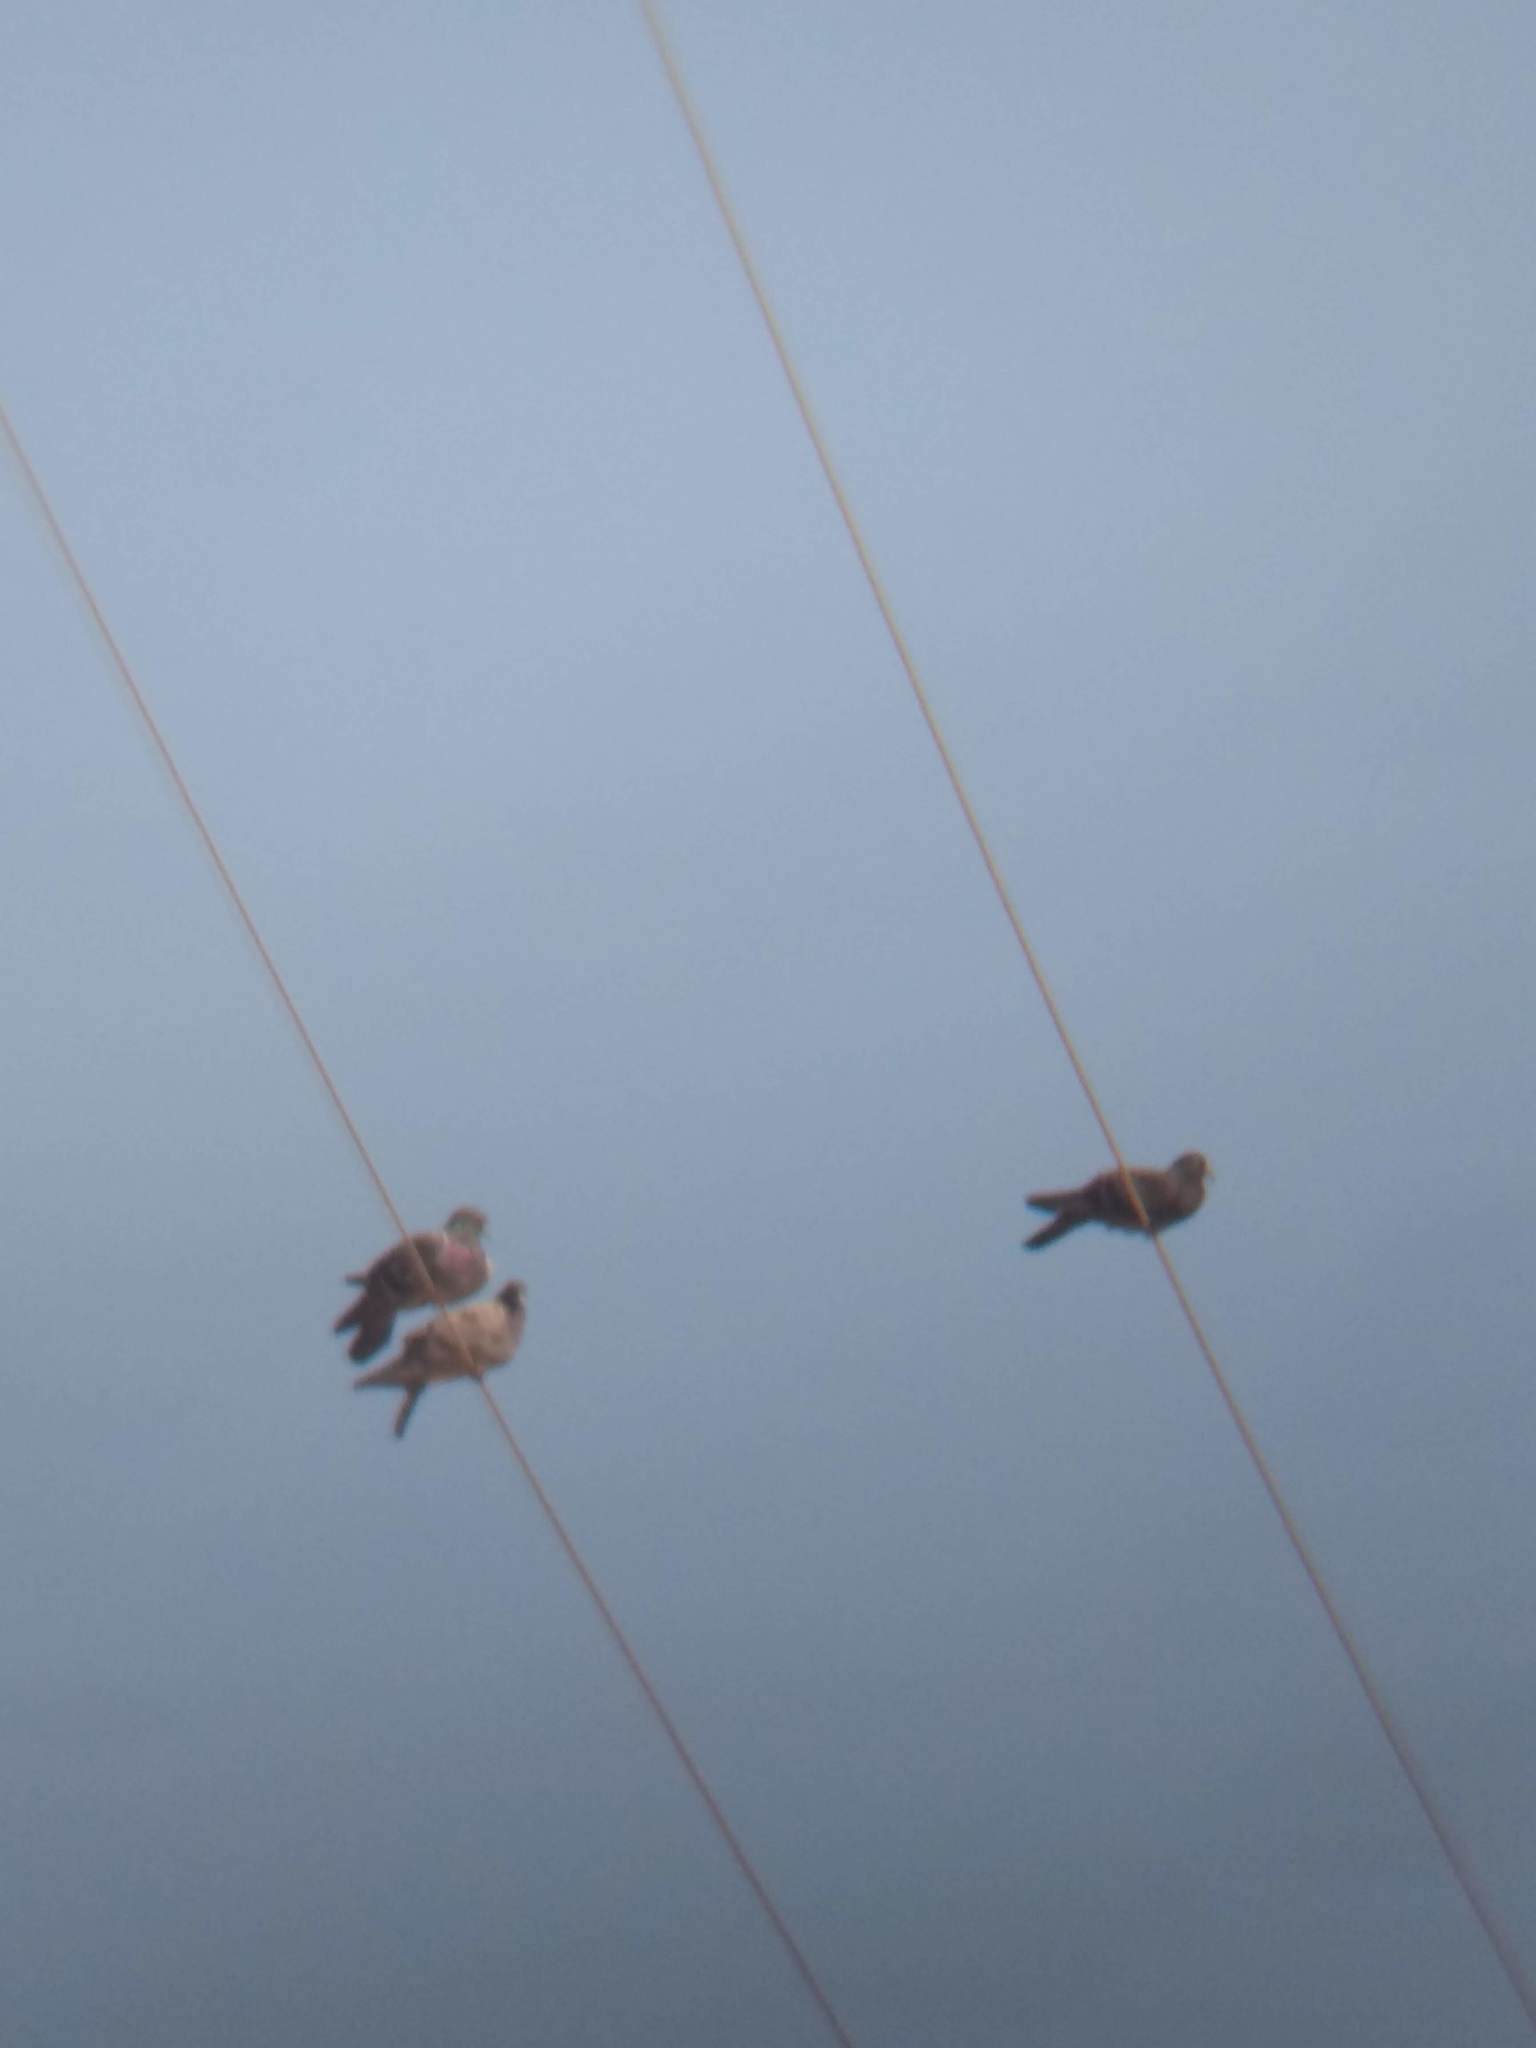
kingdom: Animalia
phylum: Chordata
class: Aves
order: Columbiformes
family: Columbidae
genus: Columba
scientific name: Columba livia
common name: Rock pigeon
